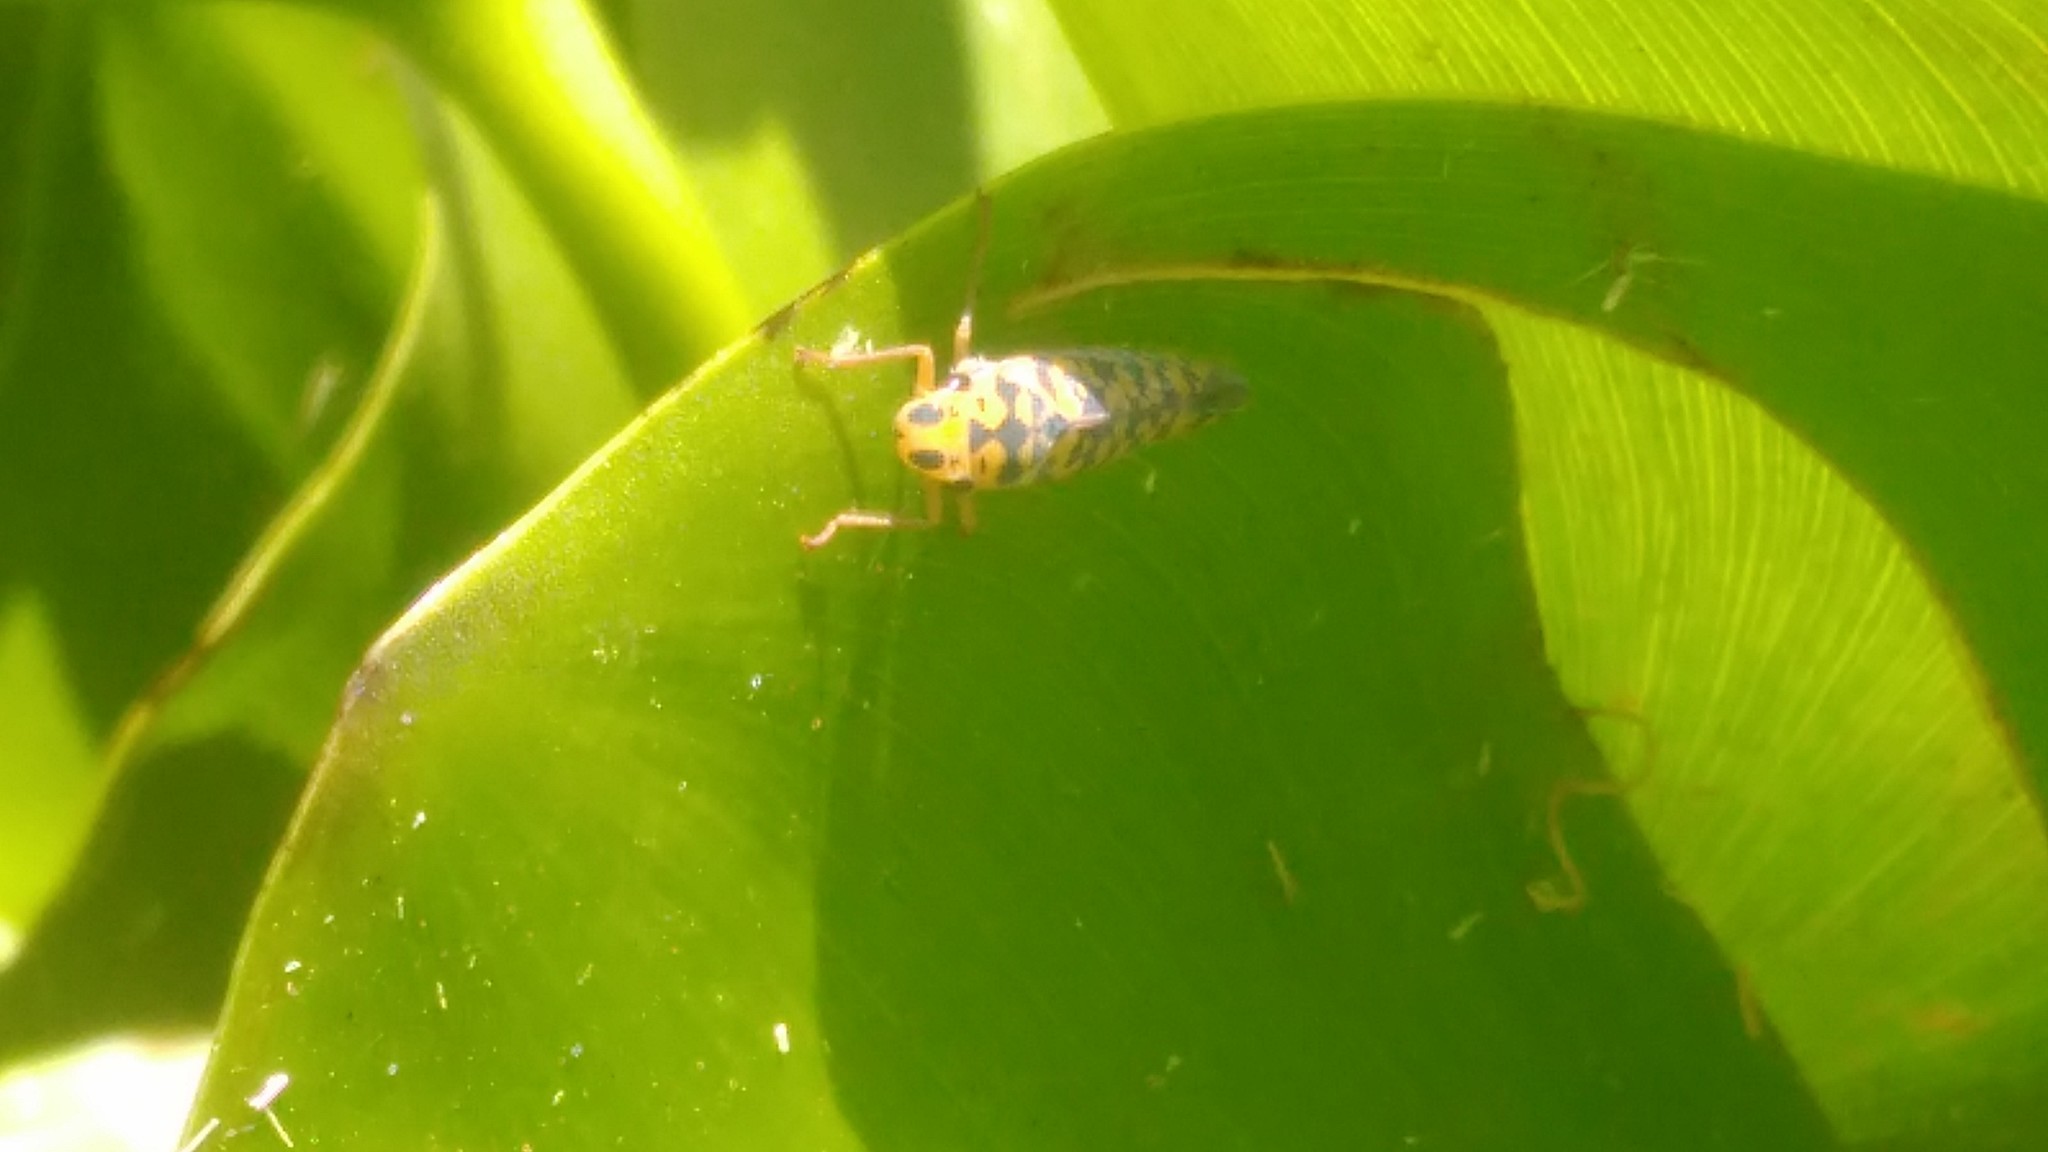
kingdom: Animalia
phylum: Arthropoda
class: Insecta
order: Hemiptera
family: Cicadellidae
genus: Pawiloma
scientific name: Pawiloma victima
